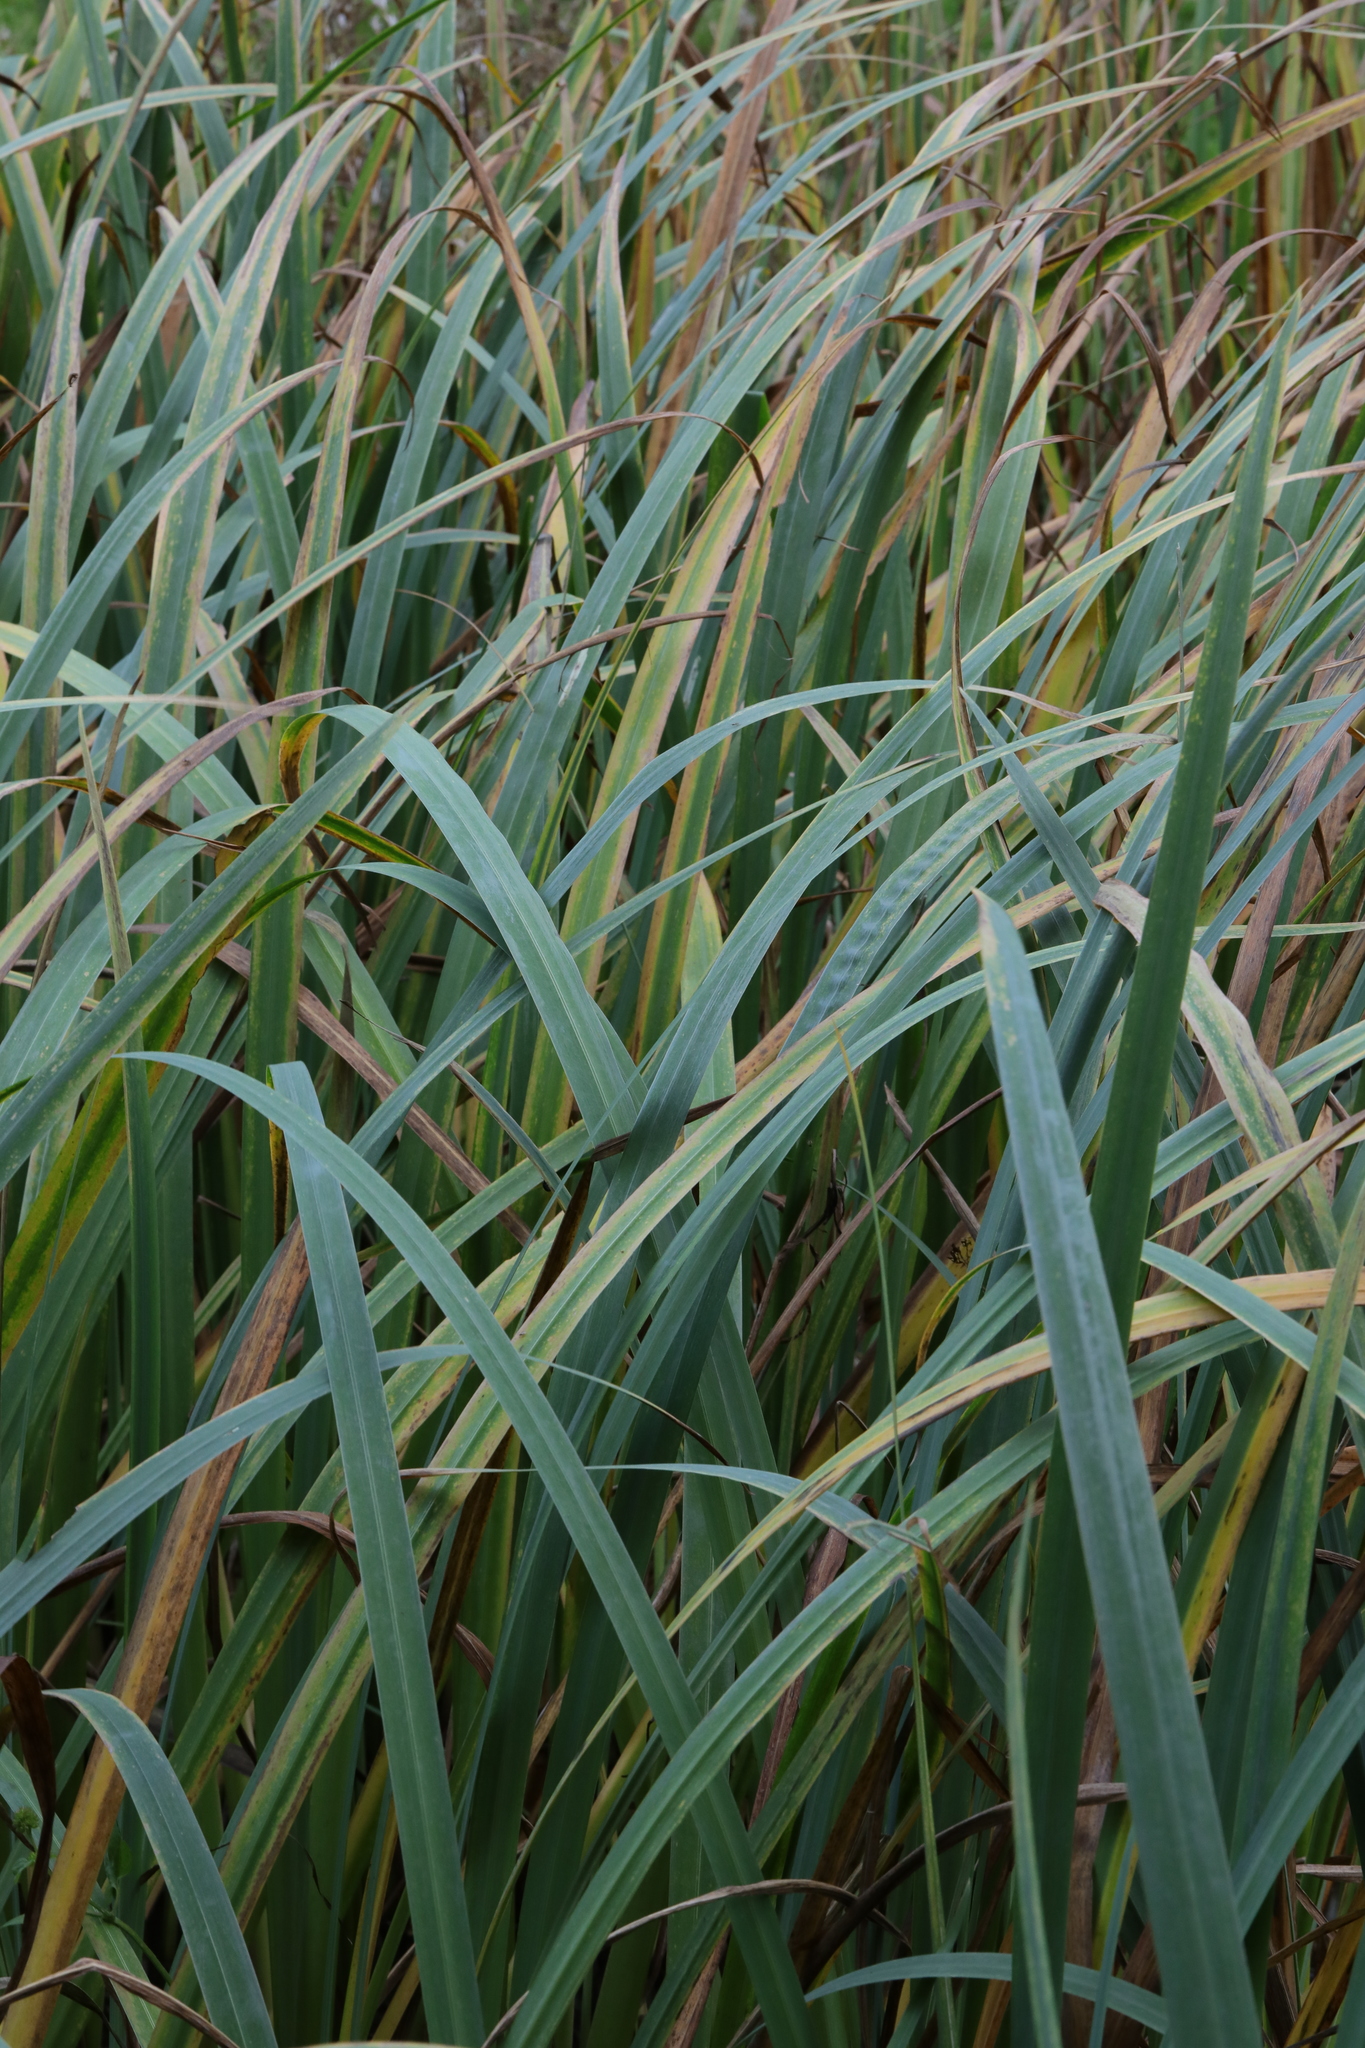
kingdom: Plantae
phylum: Tracheophyta
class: Liliopsida
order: Asparagales
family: Iridaceae
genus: Iris
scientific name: Iris pseudacorus
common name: Yellow flag
